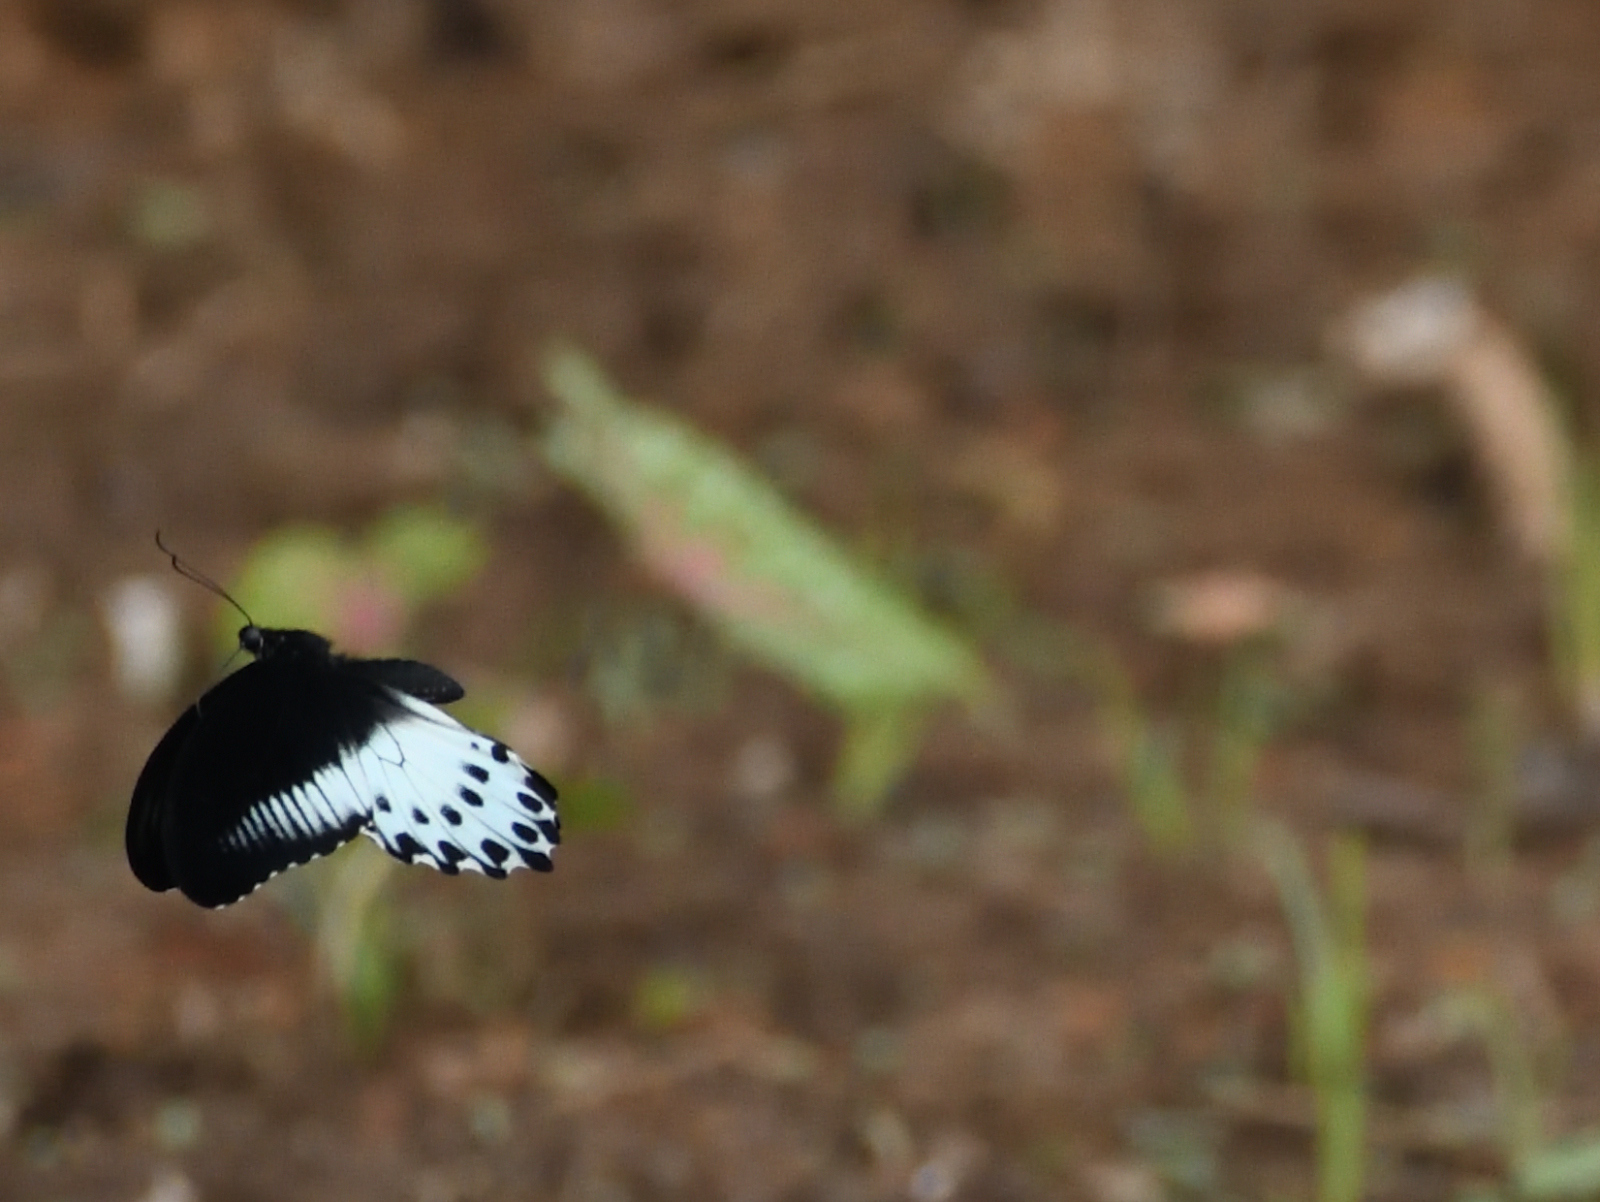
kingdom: Animalia
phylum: Arthropoda
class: Insecta
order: Lepidoptera
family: Papilionidae
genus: Papilio
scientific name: Papilio memnon
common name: Great mormon
